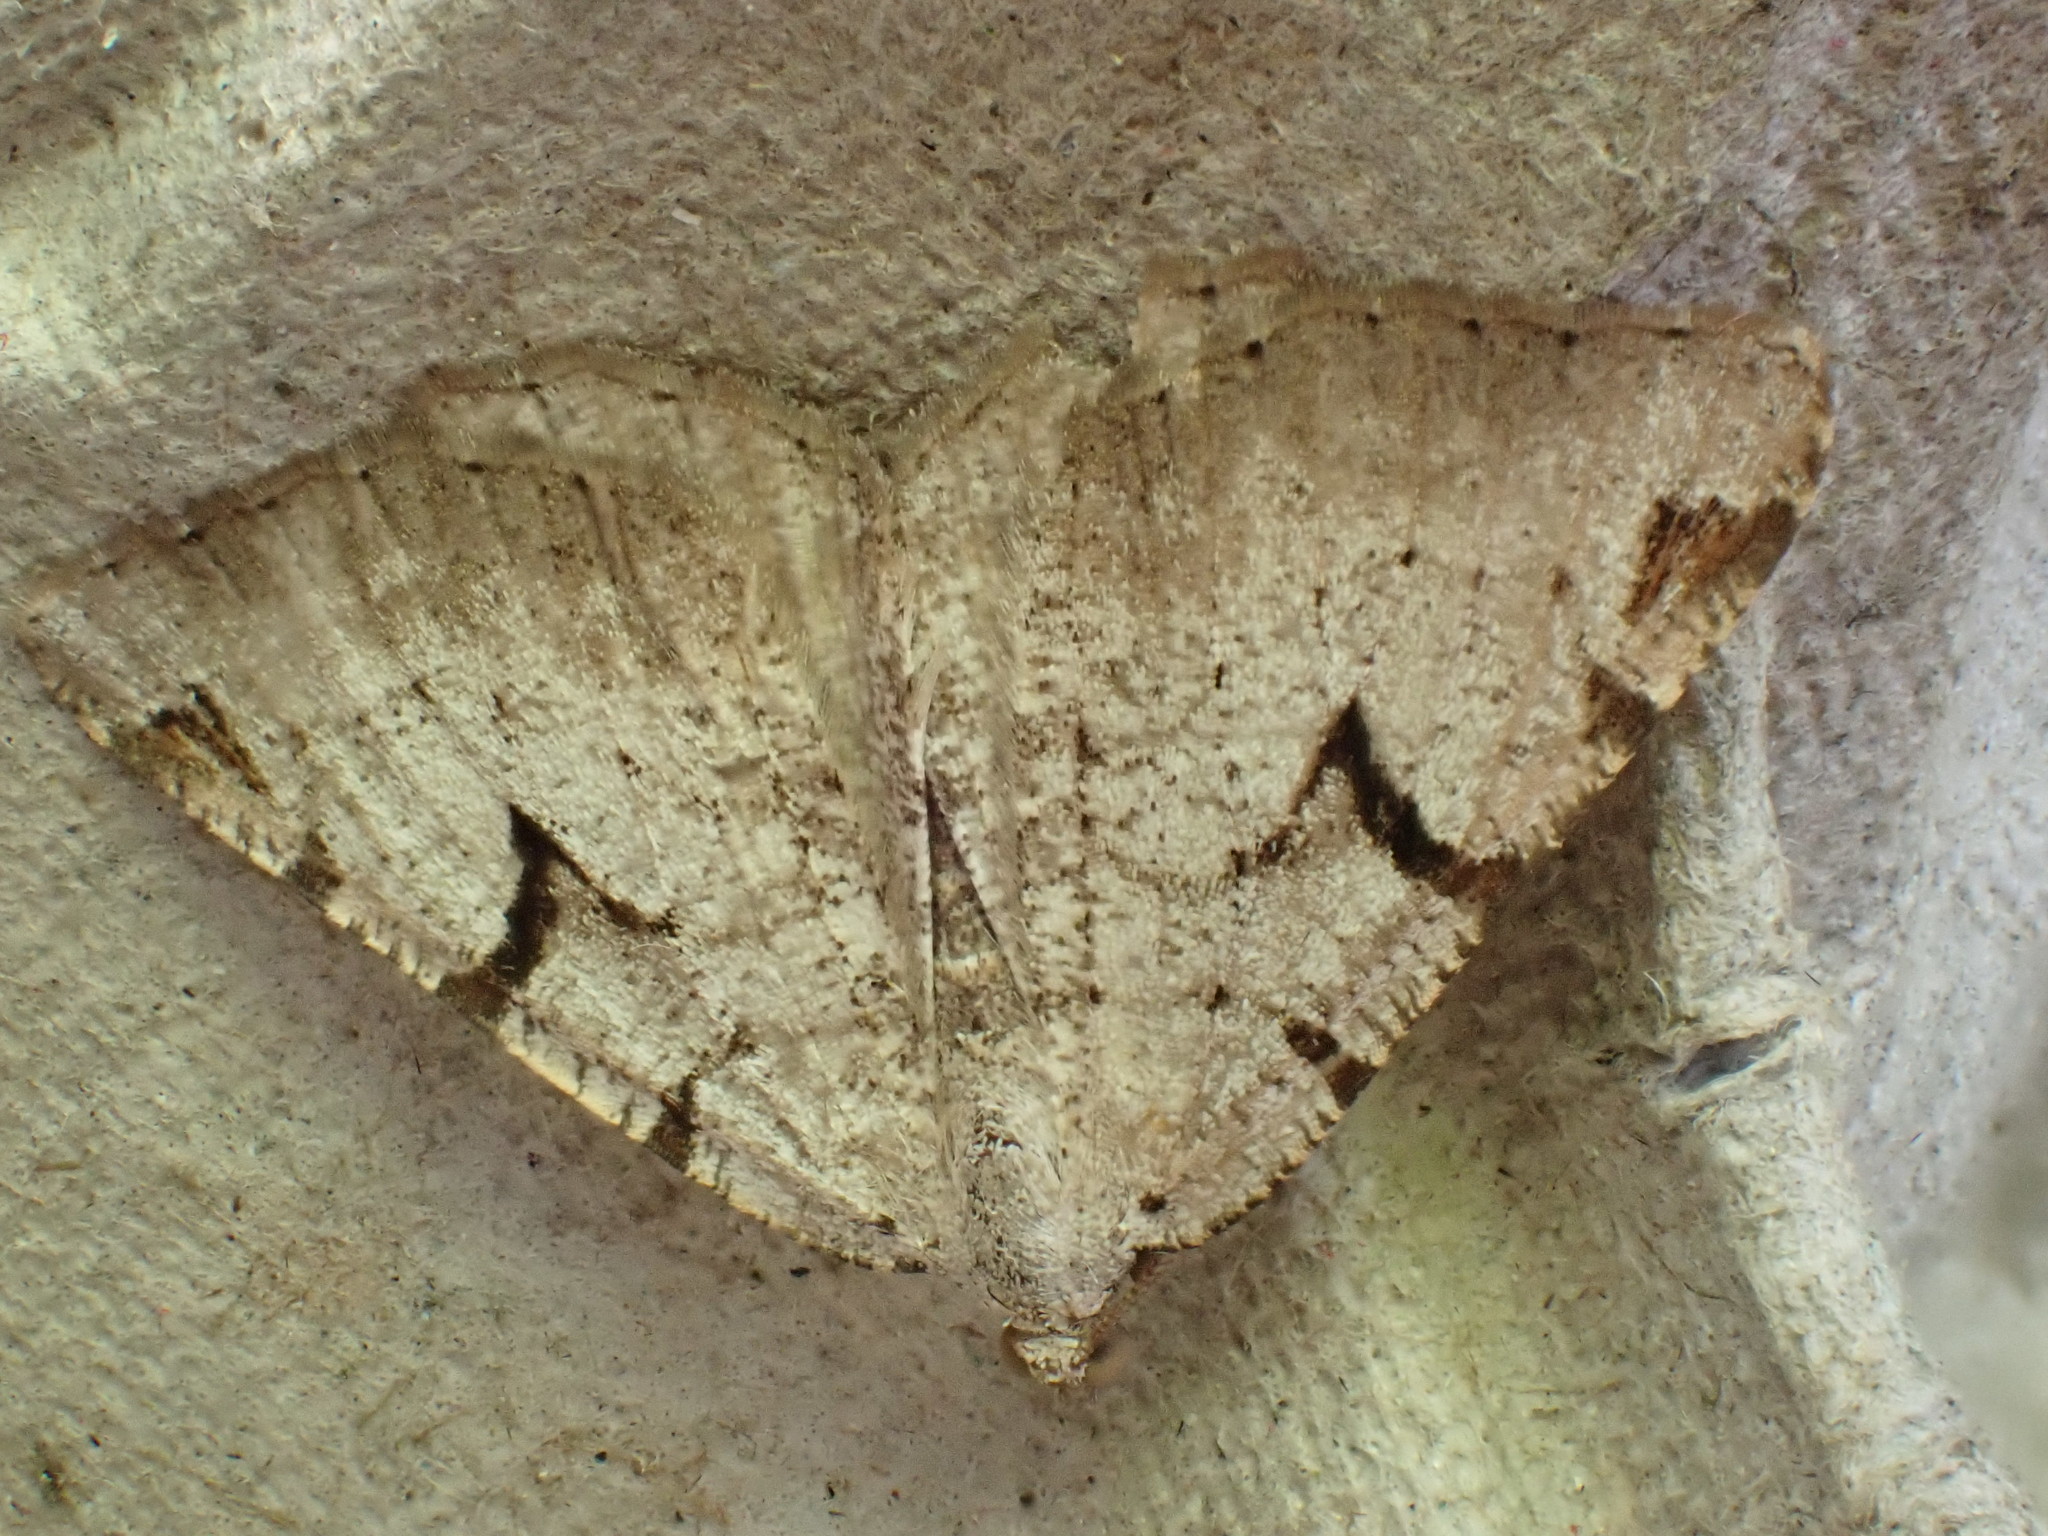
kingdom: Animalia
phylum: Arthropoda
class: Insecta
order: Lepidoptera
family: Geometridae
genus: Macaria
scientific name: Macaria wauaria
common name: V-moth
